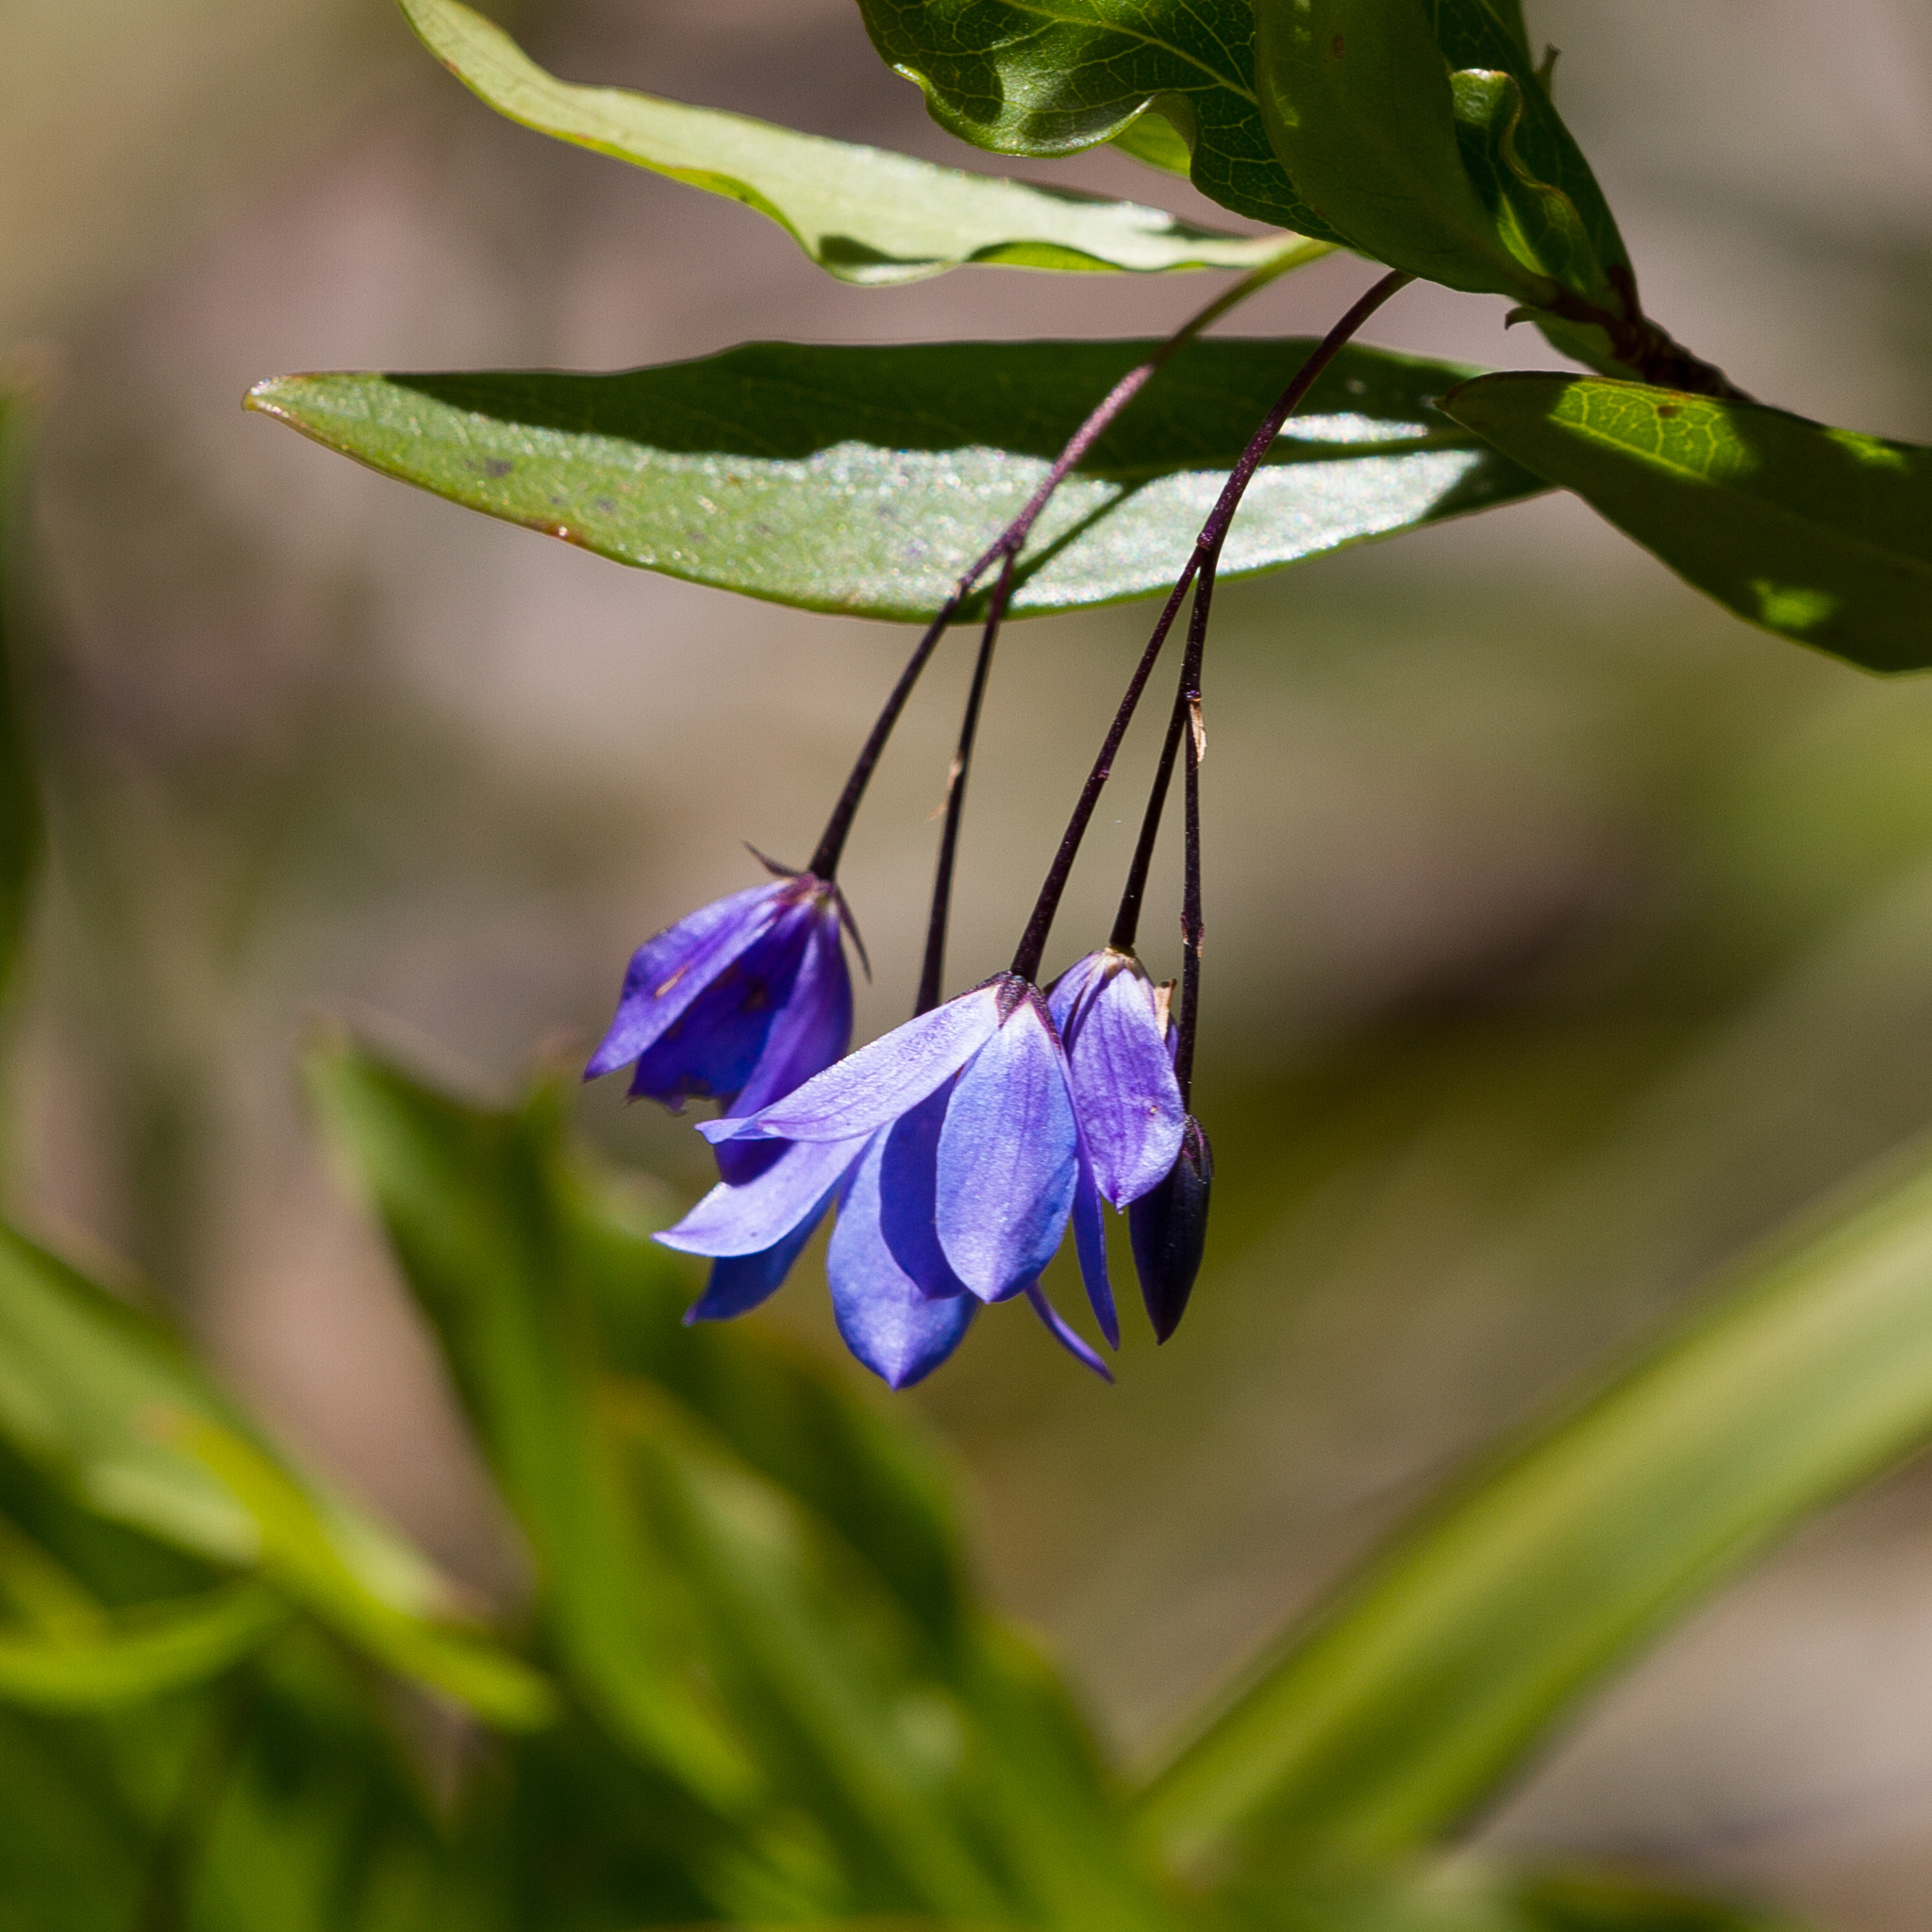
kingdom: Plantae
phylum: Tracheophyta
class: Magnoliopsida
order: Apiales
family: Pittosporaceae
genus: Billardiera
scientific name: Billardiera heterophylla
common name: Bluebell creeper
